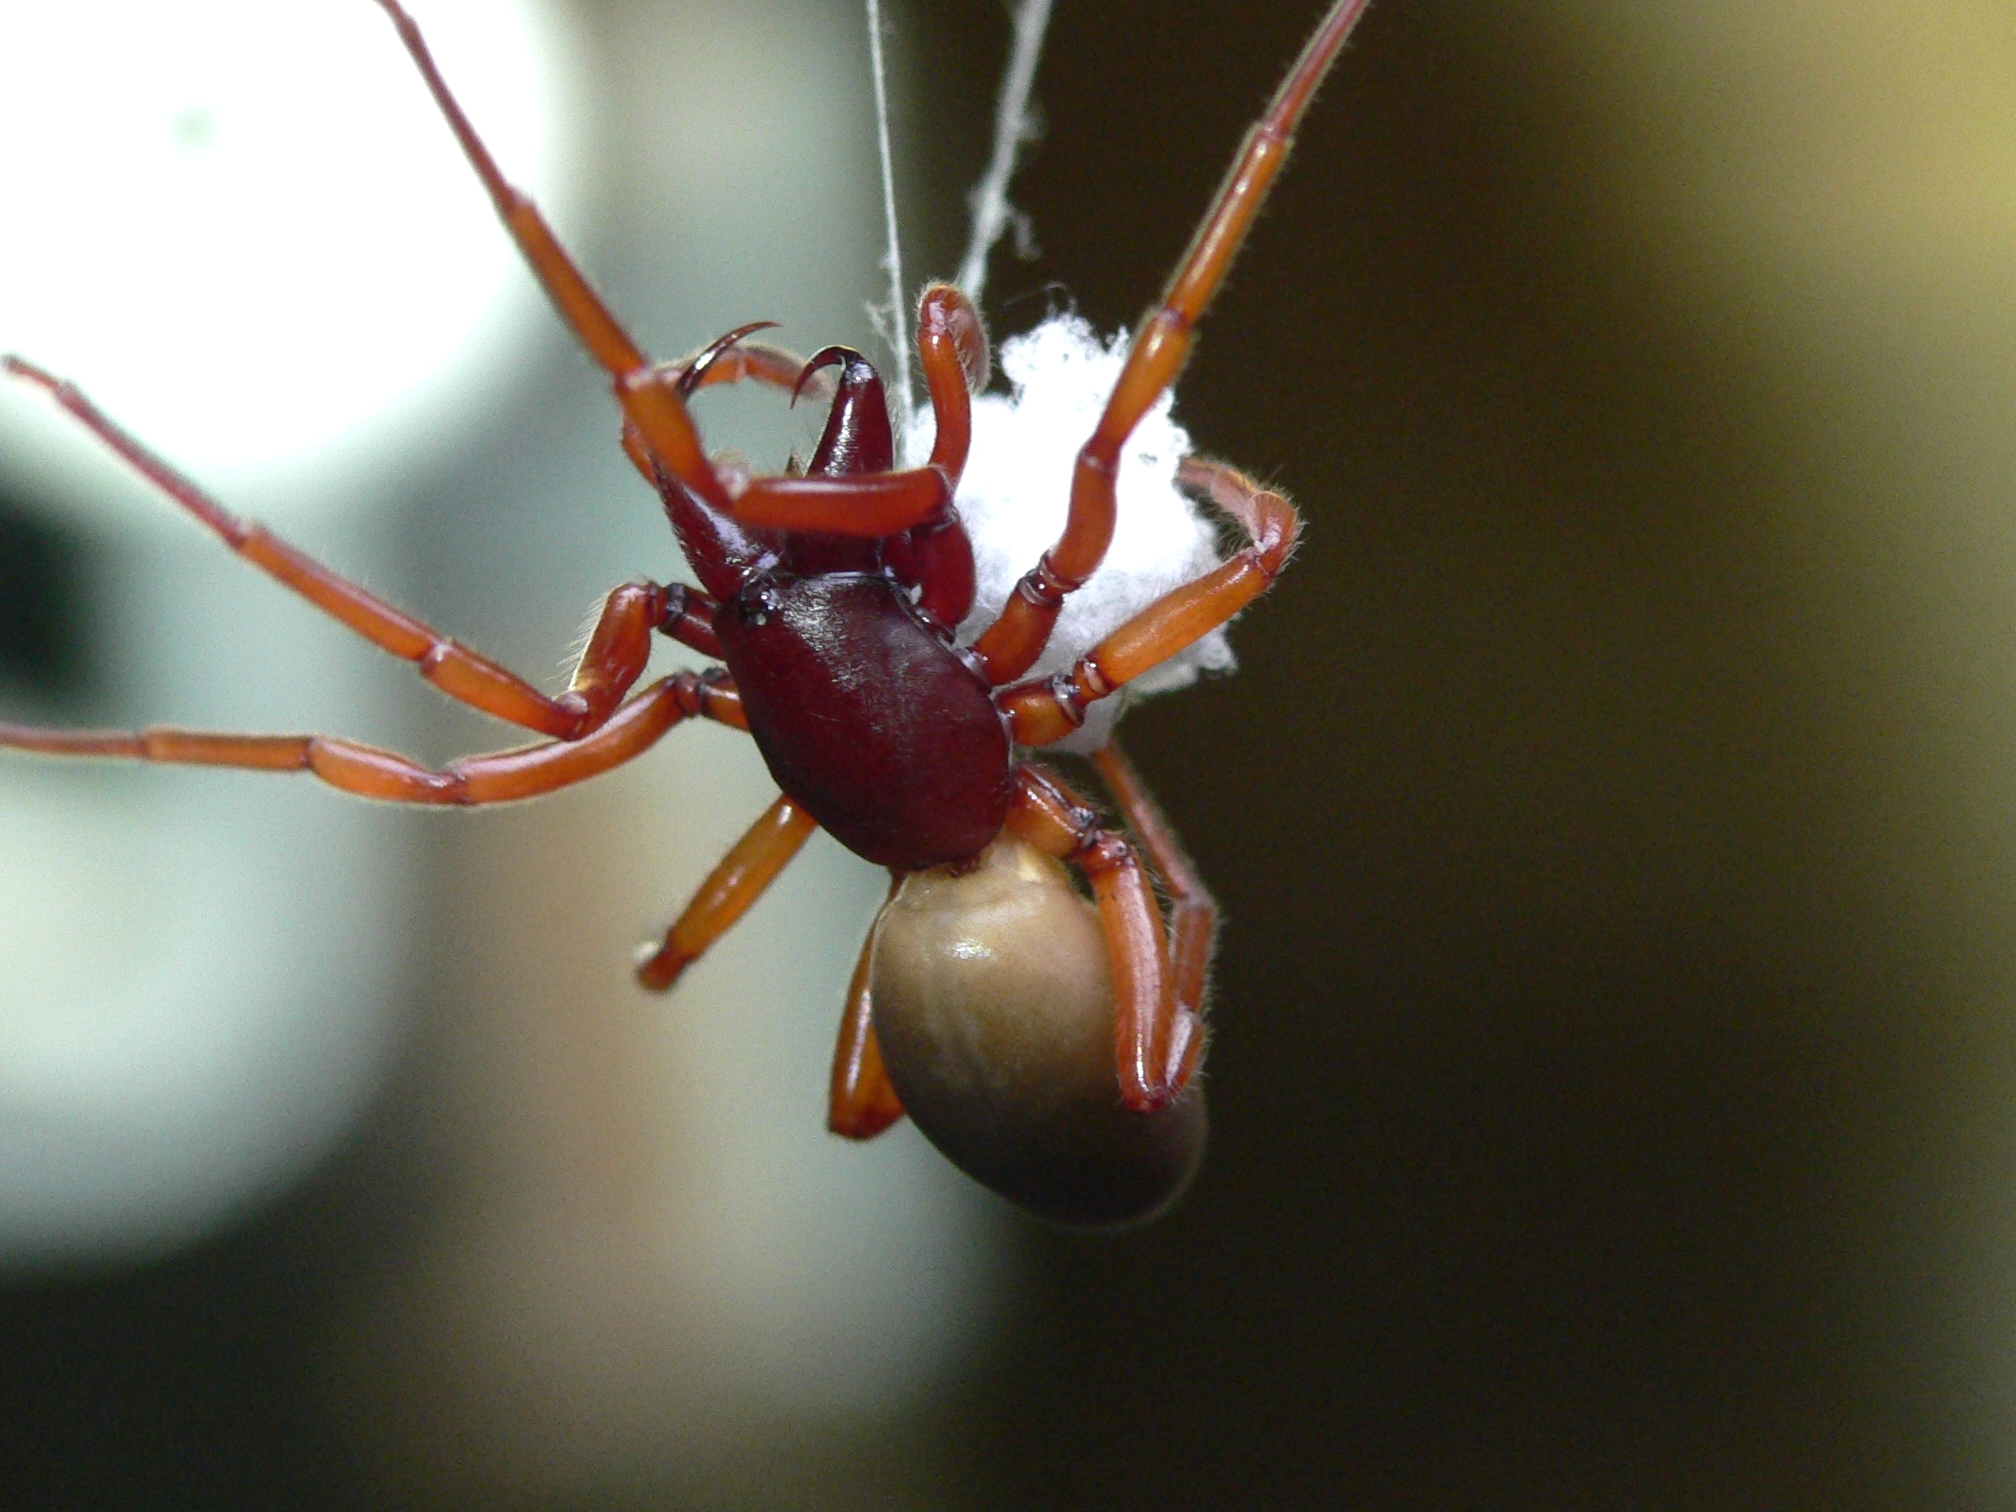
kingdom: Animalia
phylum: Arthropoda
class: Arachnida
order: Araneae
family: Dysderidae
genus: Dysdera
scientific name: Dysdera crocata
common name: Woodlouse spider
